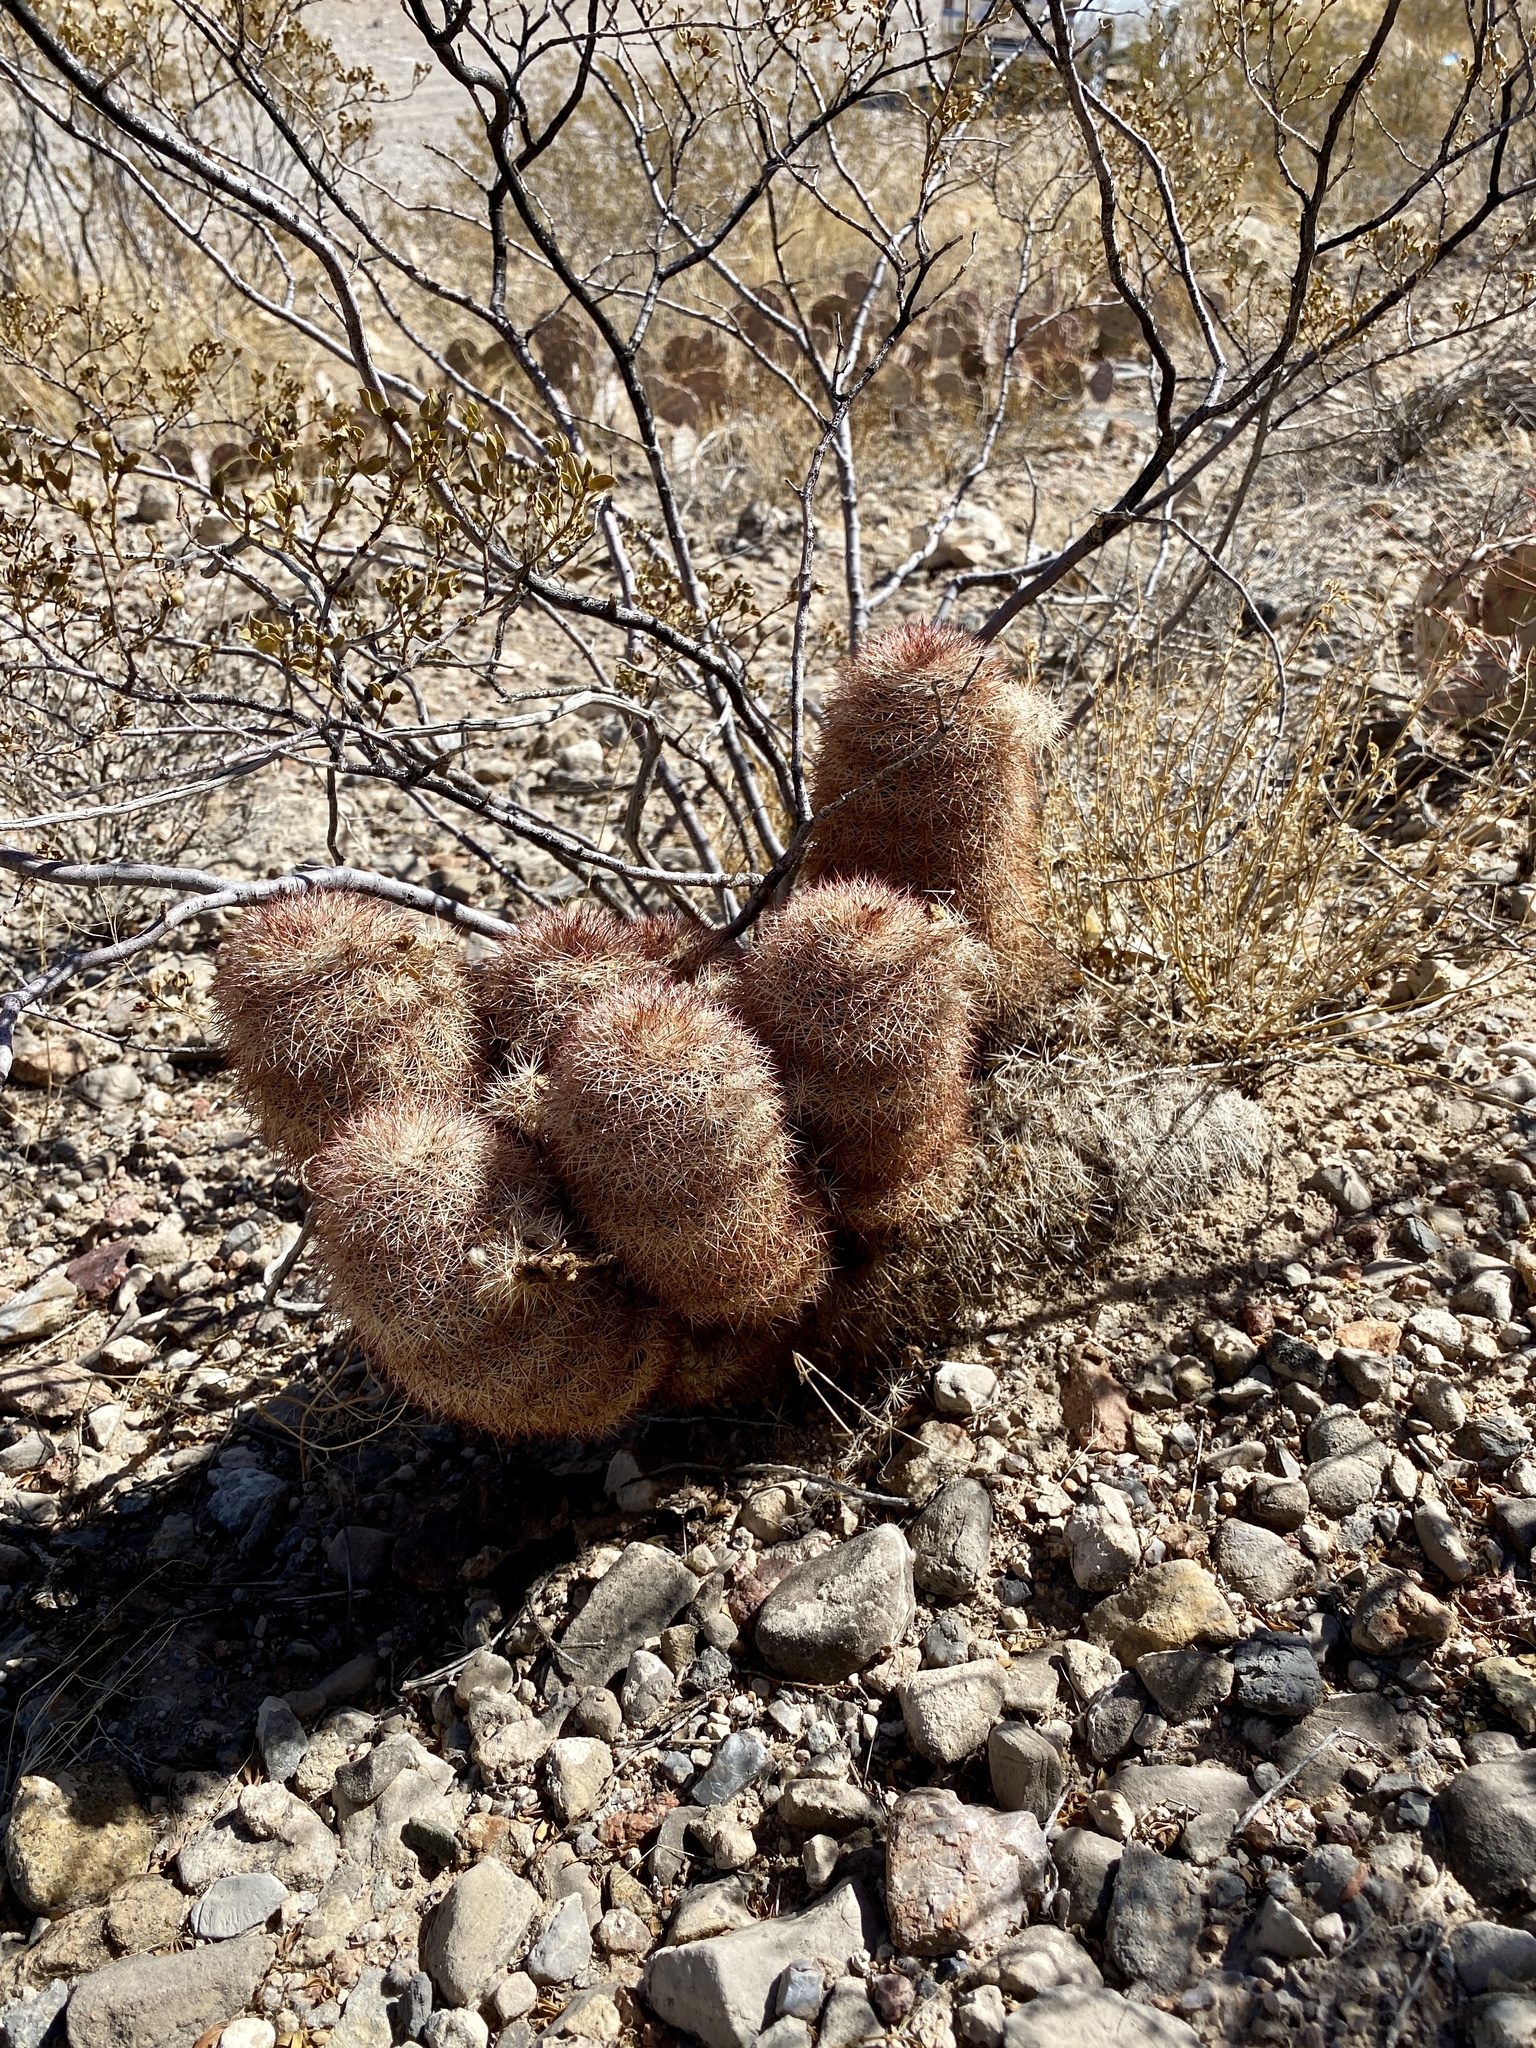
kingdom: Plantae
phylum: Tracheophyta
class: Magnoliopsida
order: Caryophyllales
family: Cactaceae
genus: Echinocereus
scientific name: Echinocereus dasyacanthus
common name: Spiny hedgehog cactus
